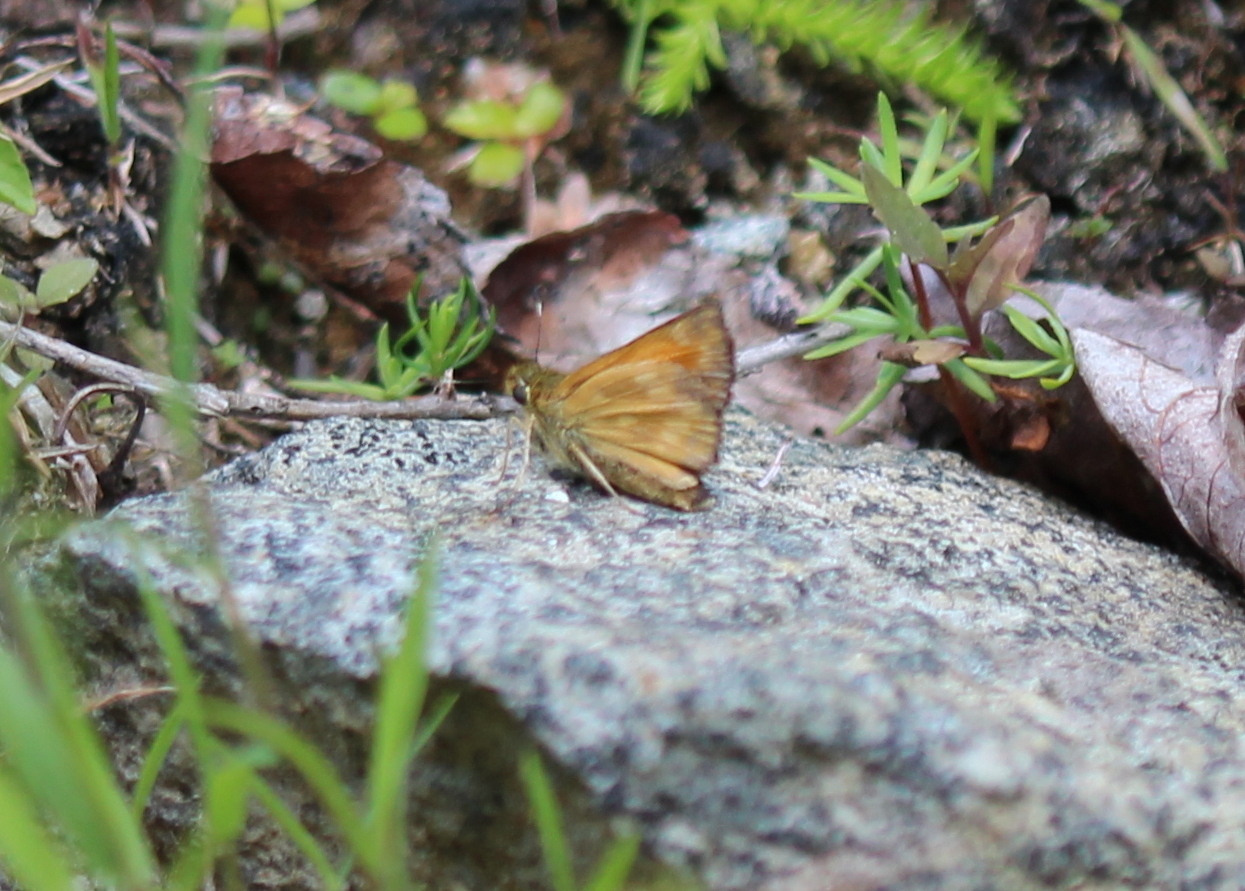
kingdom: Animalia
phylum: Arthropoda
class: Insecta
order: Lepidoptera
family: Hesperiidae
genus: Hesperia
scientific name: Hesperia sassacus
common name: Indian skipper
